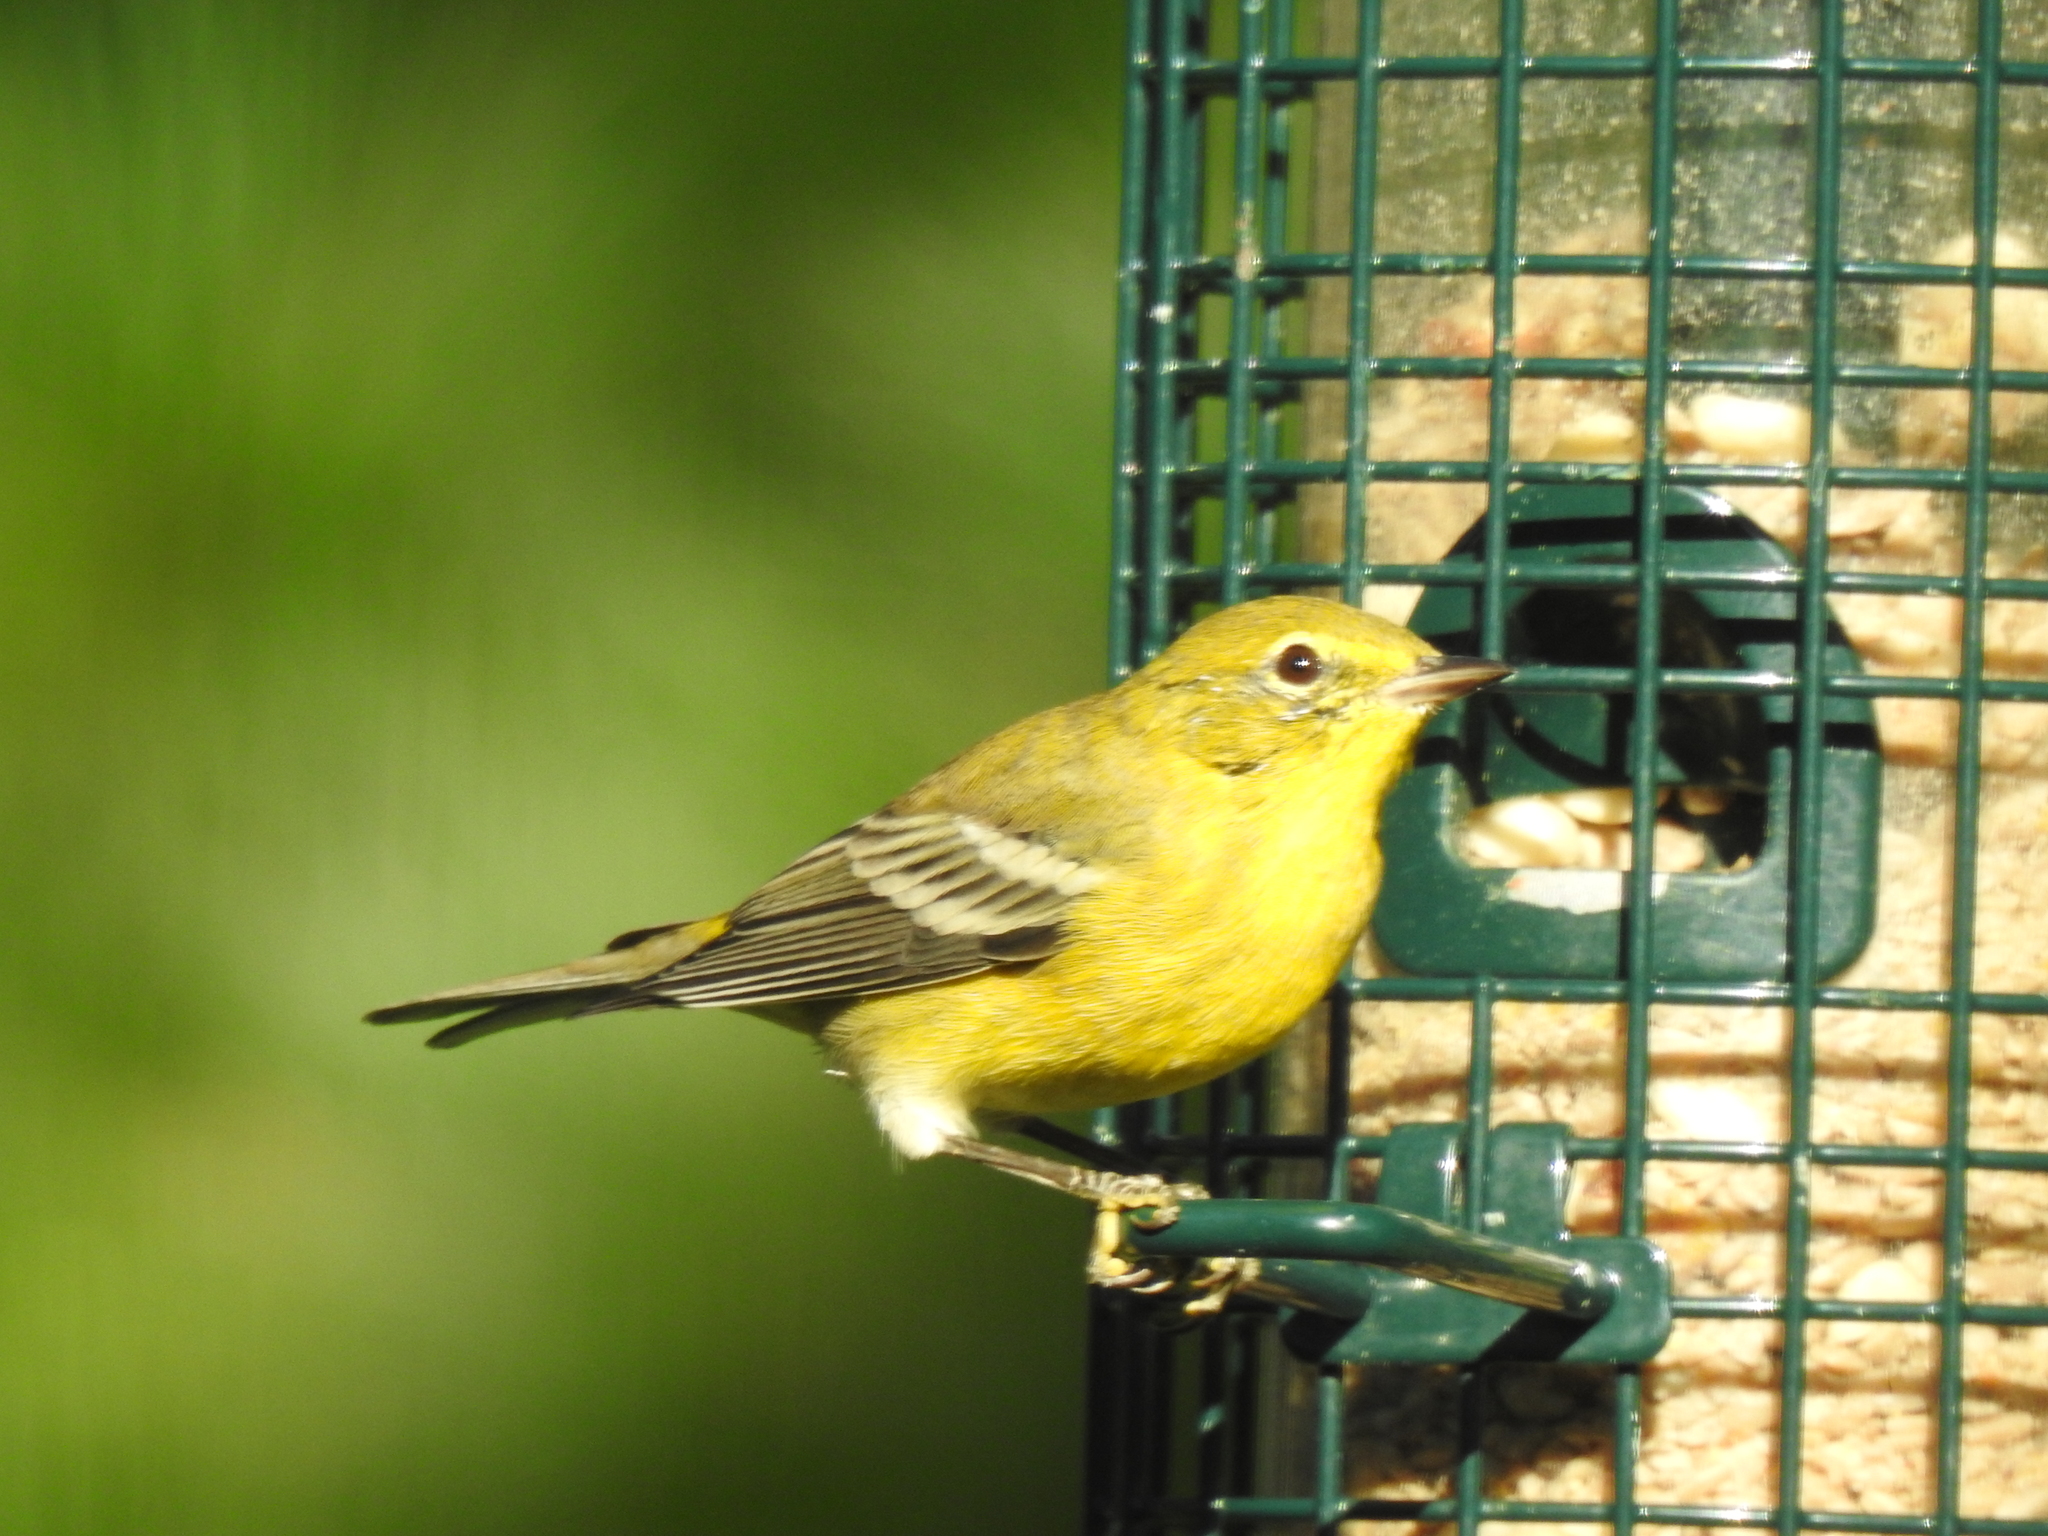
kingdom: Animalia
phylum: Chordata
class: Aves
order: Passeriformes
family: Parulidae
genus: Setophaga
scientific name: Setophaga pinus
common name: Pine warbler
